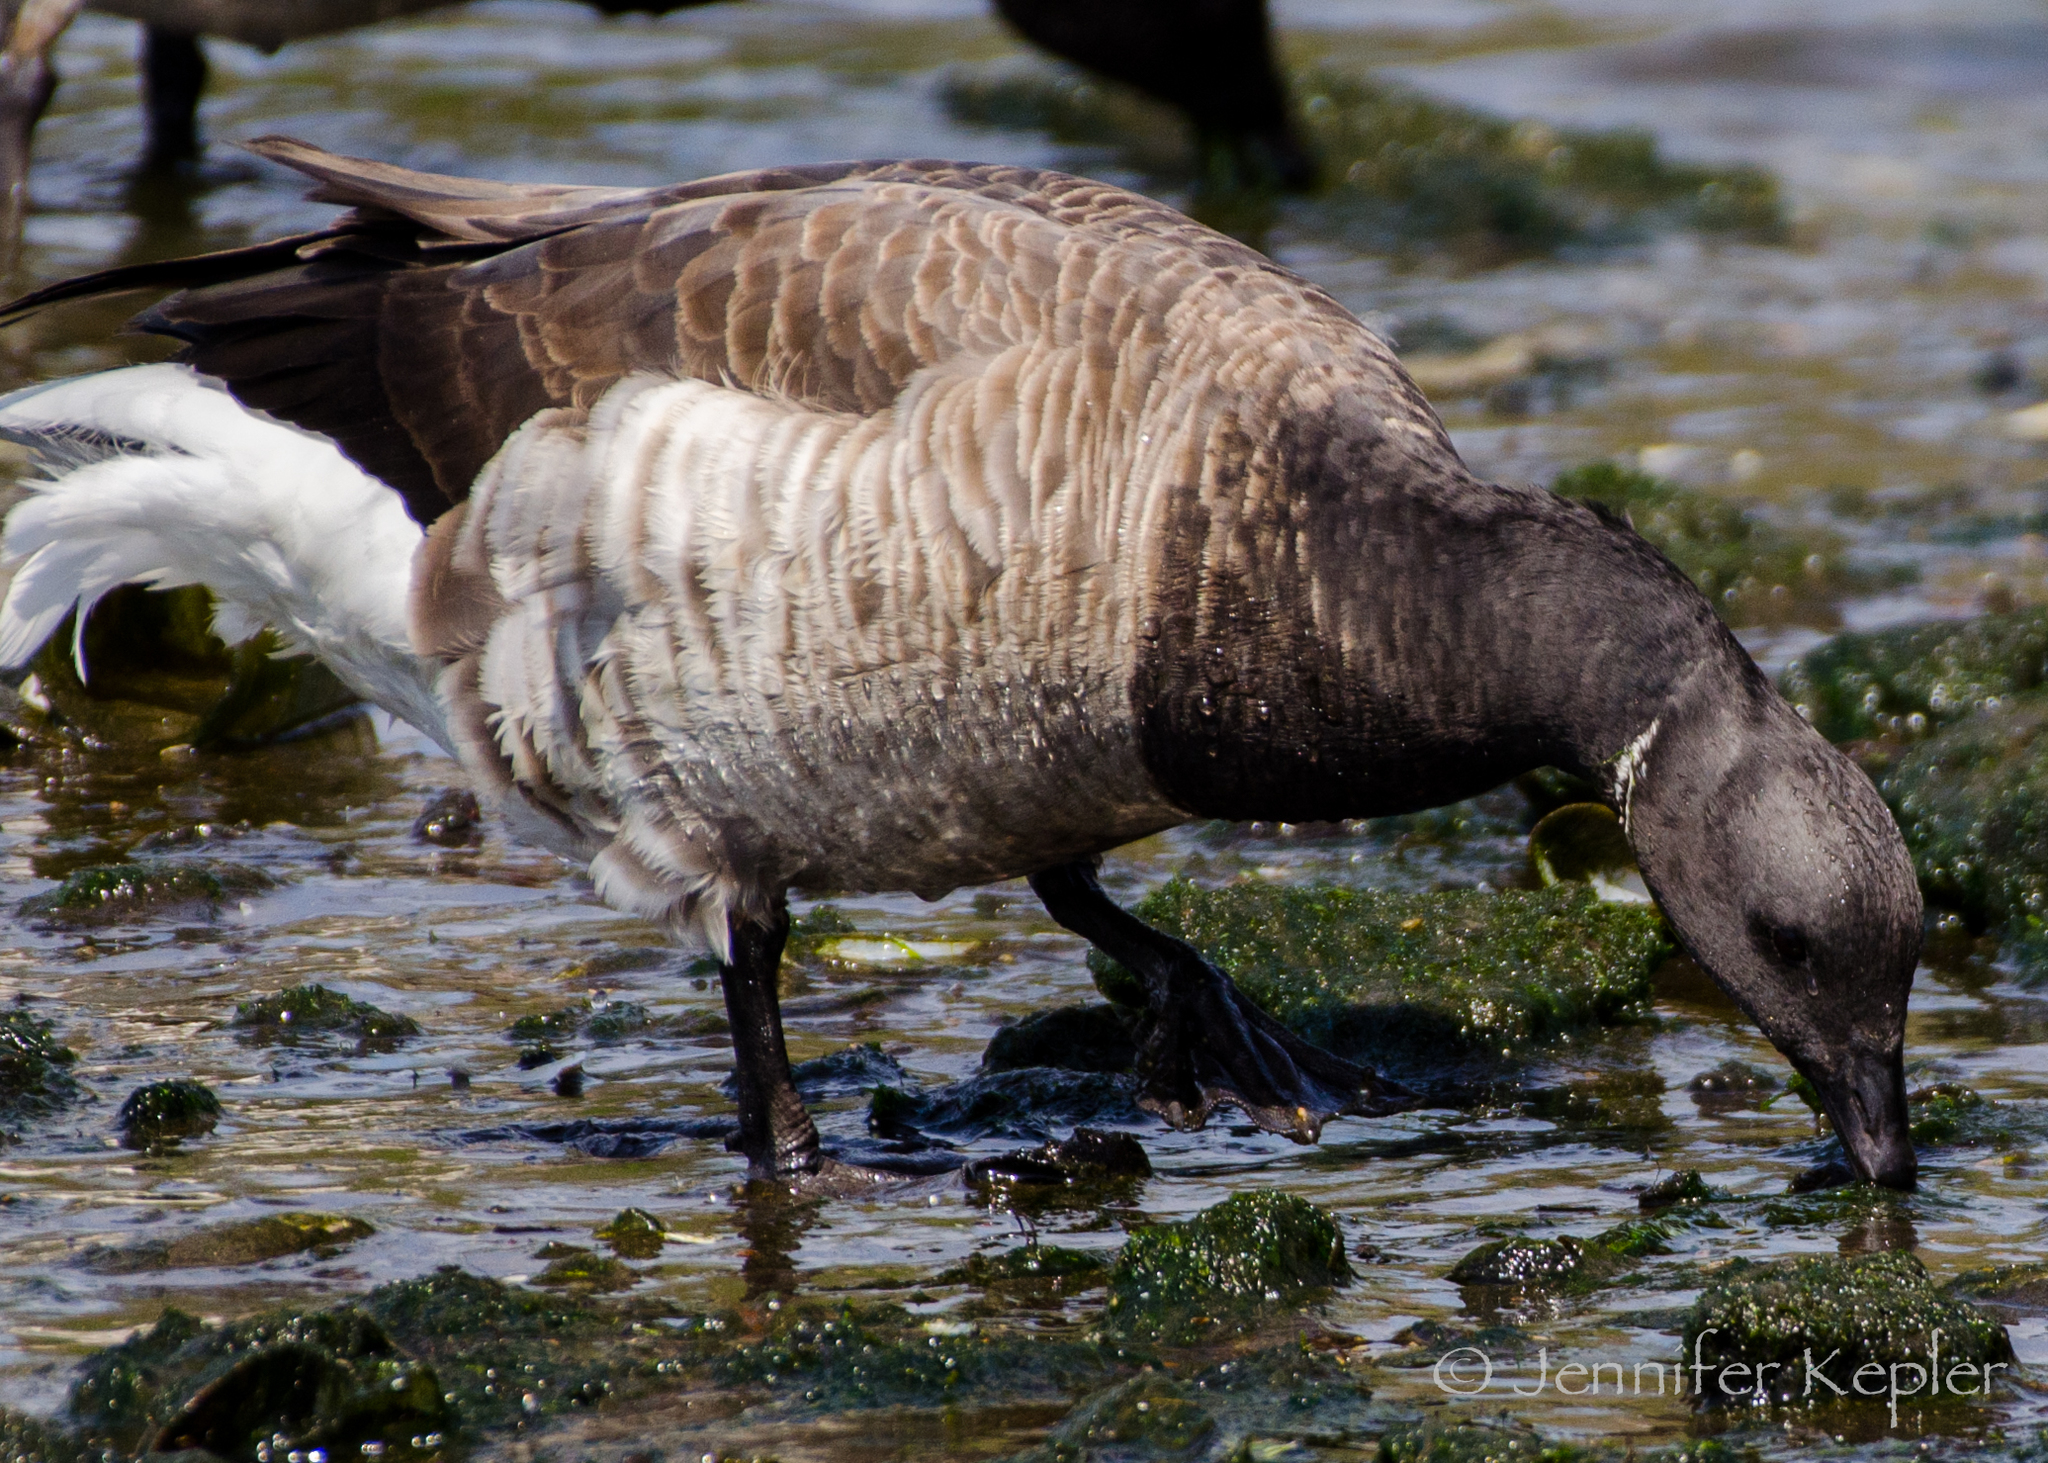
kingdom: Animalia
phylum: Chordata
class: Aves
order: Anseriformes
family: Anatidae
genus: Branta
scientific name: Branta bernicla
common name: Brant goose
